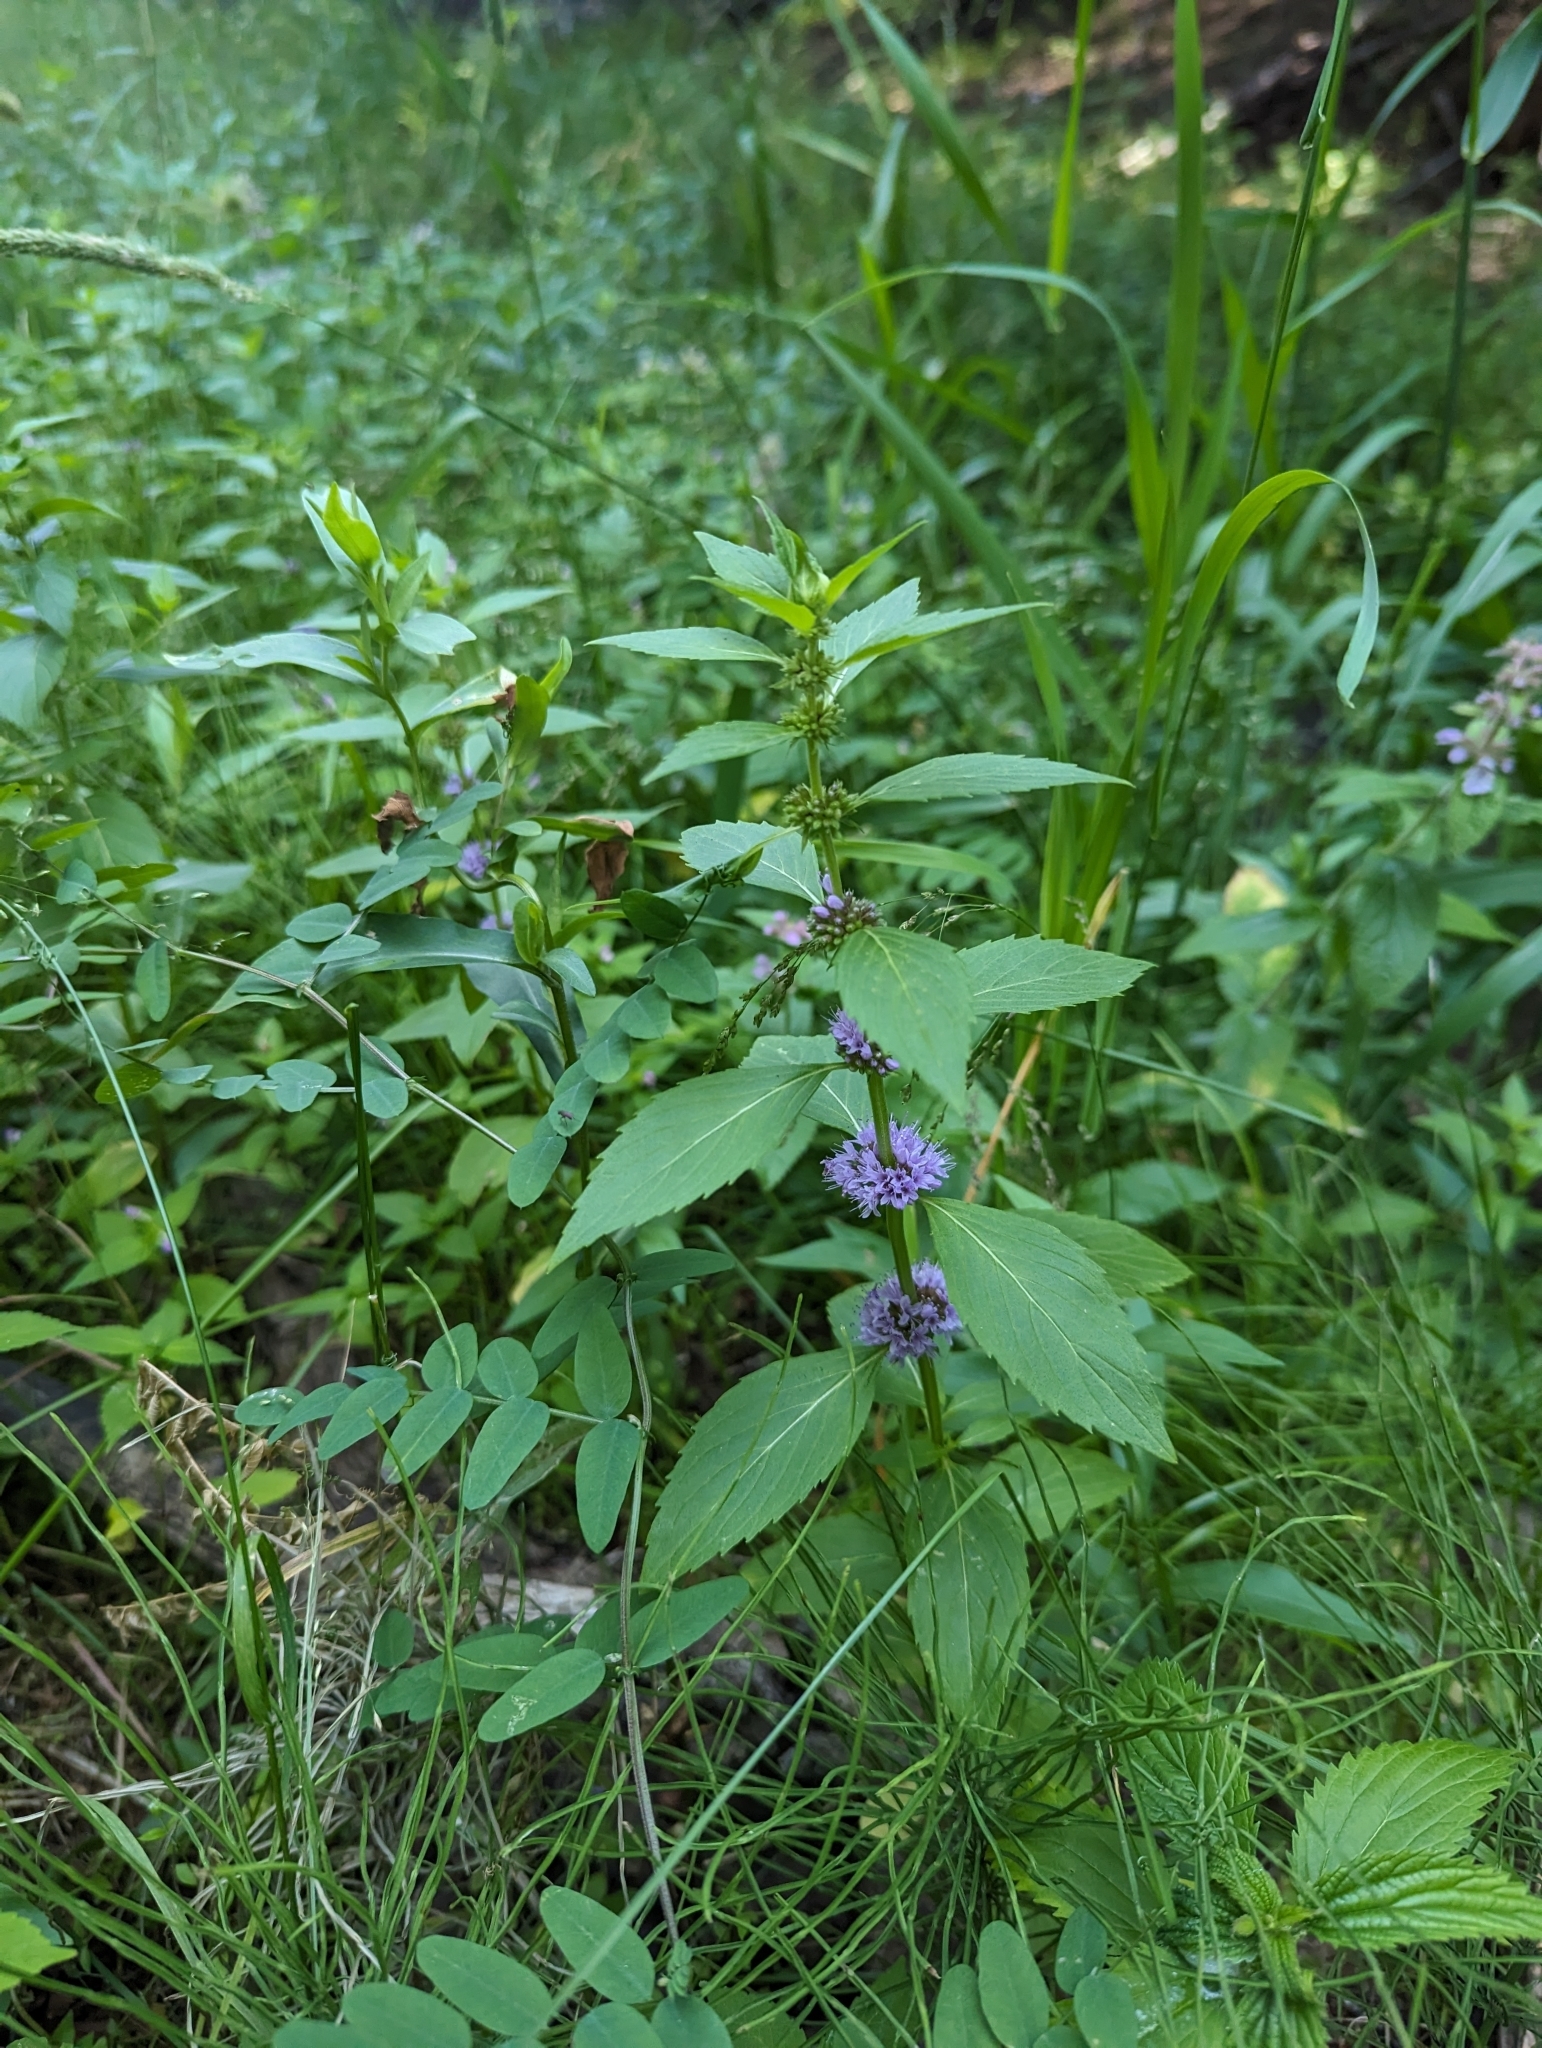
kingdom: Plantae
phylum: Tracheophyta
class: Magnoliopsida
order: Lamiales
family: Lamiaceae
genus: Mentha
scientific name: Mentha canadensis
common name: American corn mint
